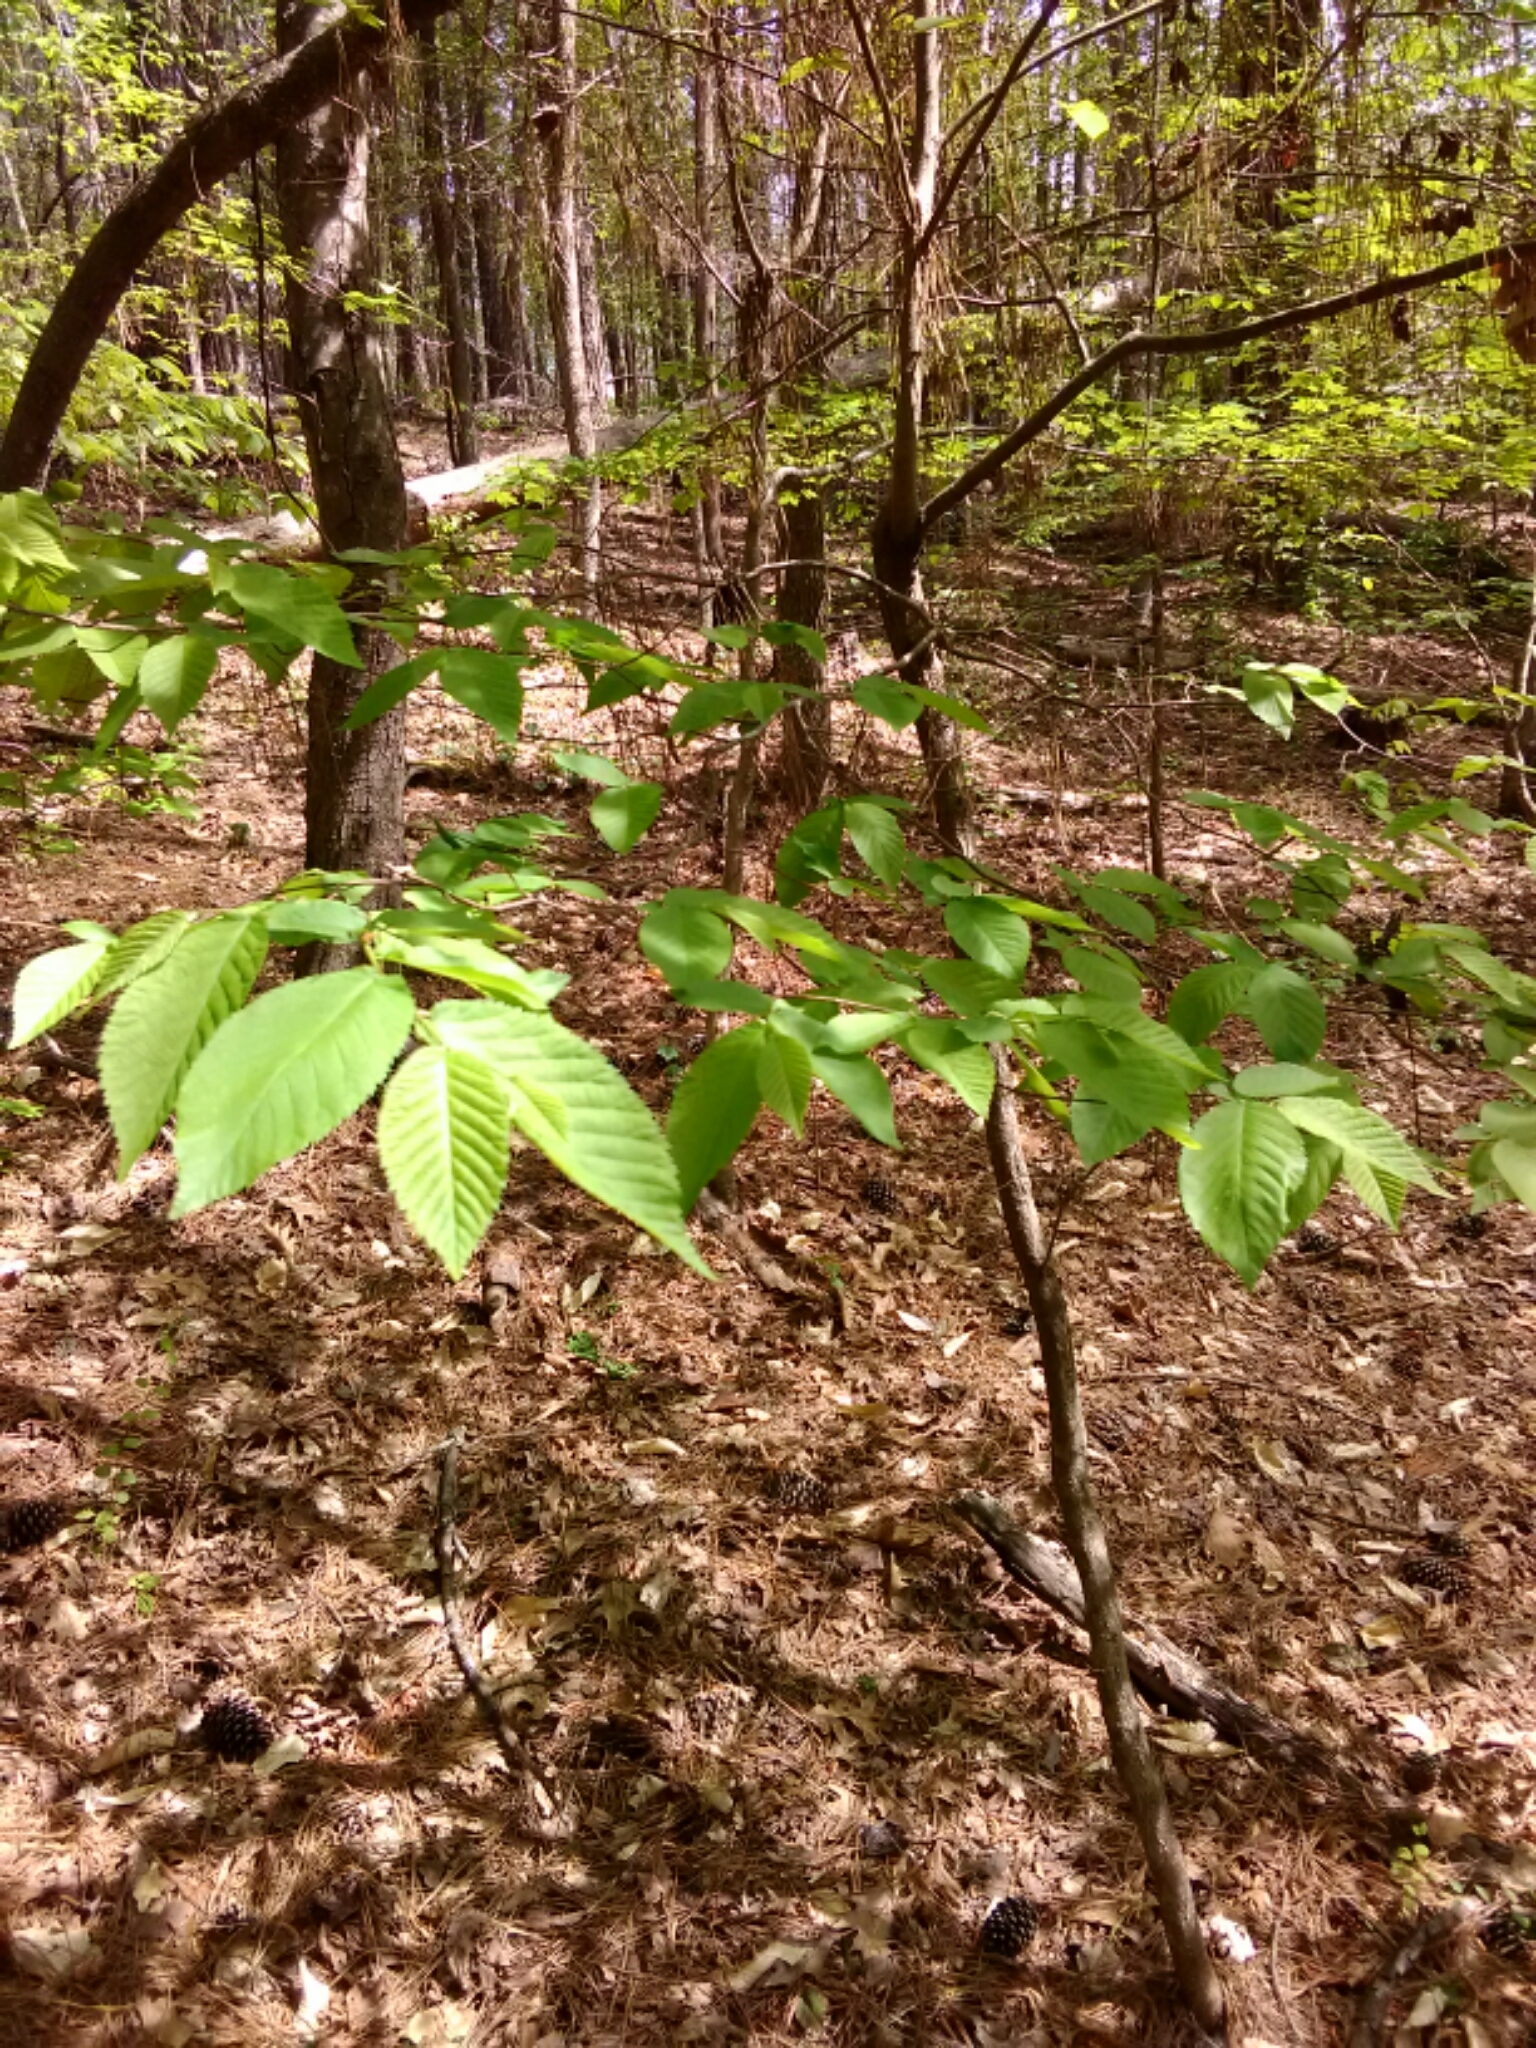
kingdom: Plantae
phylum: Tracheophyta
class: Magnoliopsida
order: Fagales
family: Fagaceae
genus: Fagus
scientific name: Fagus grandifolia
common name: American beech
